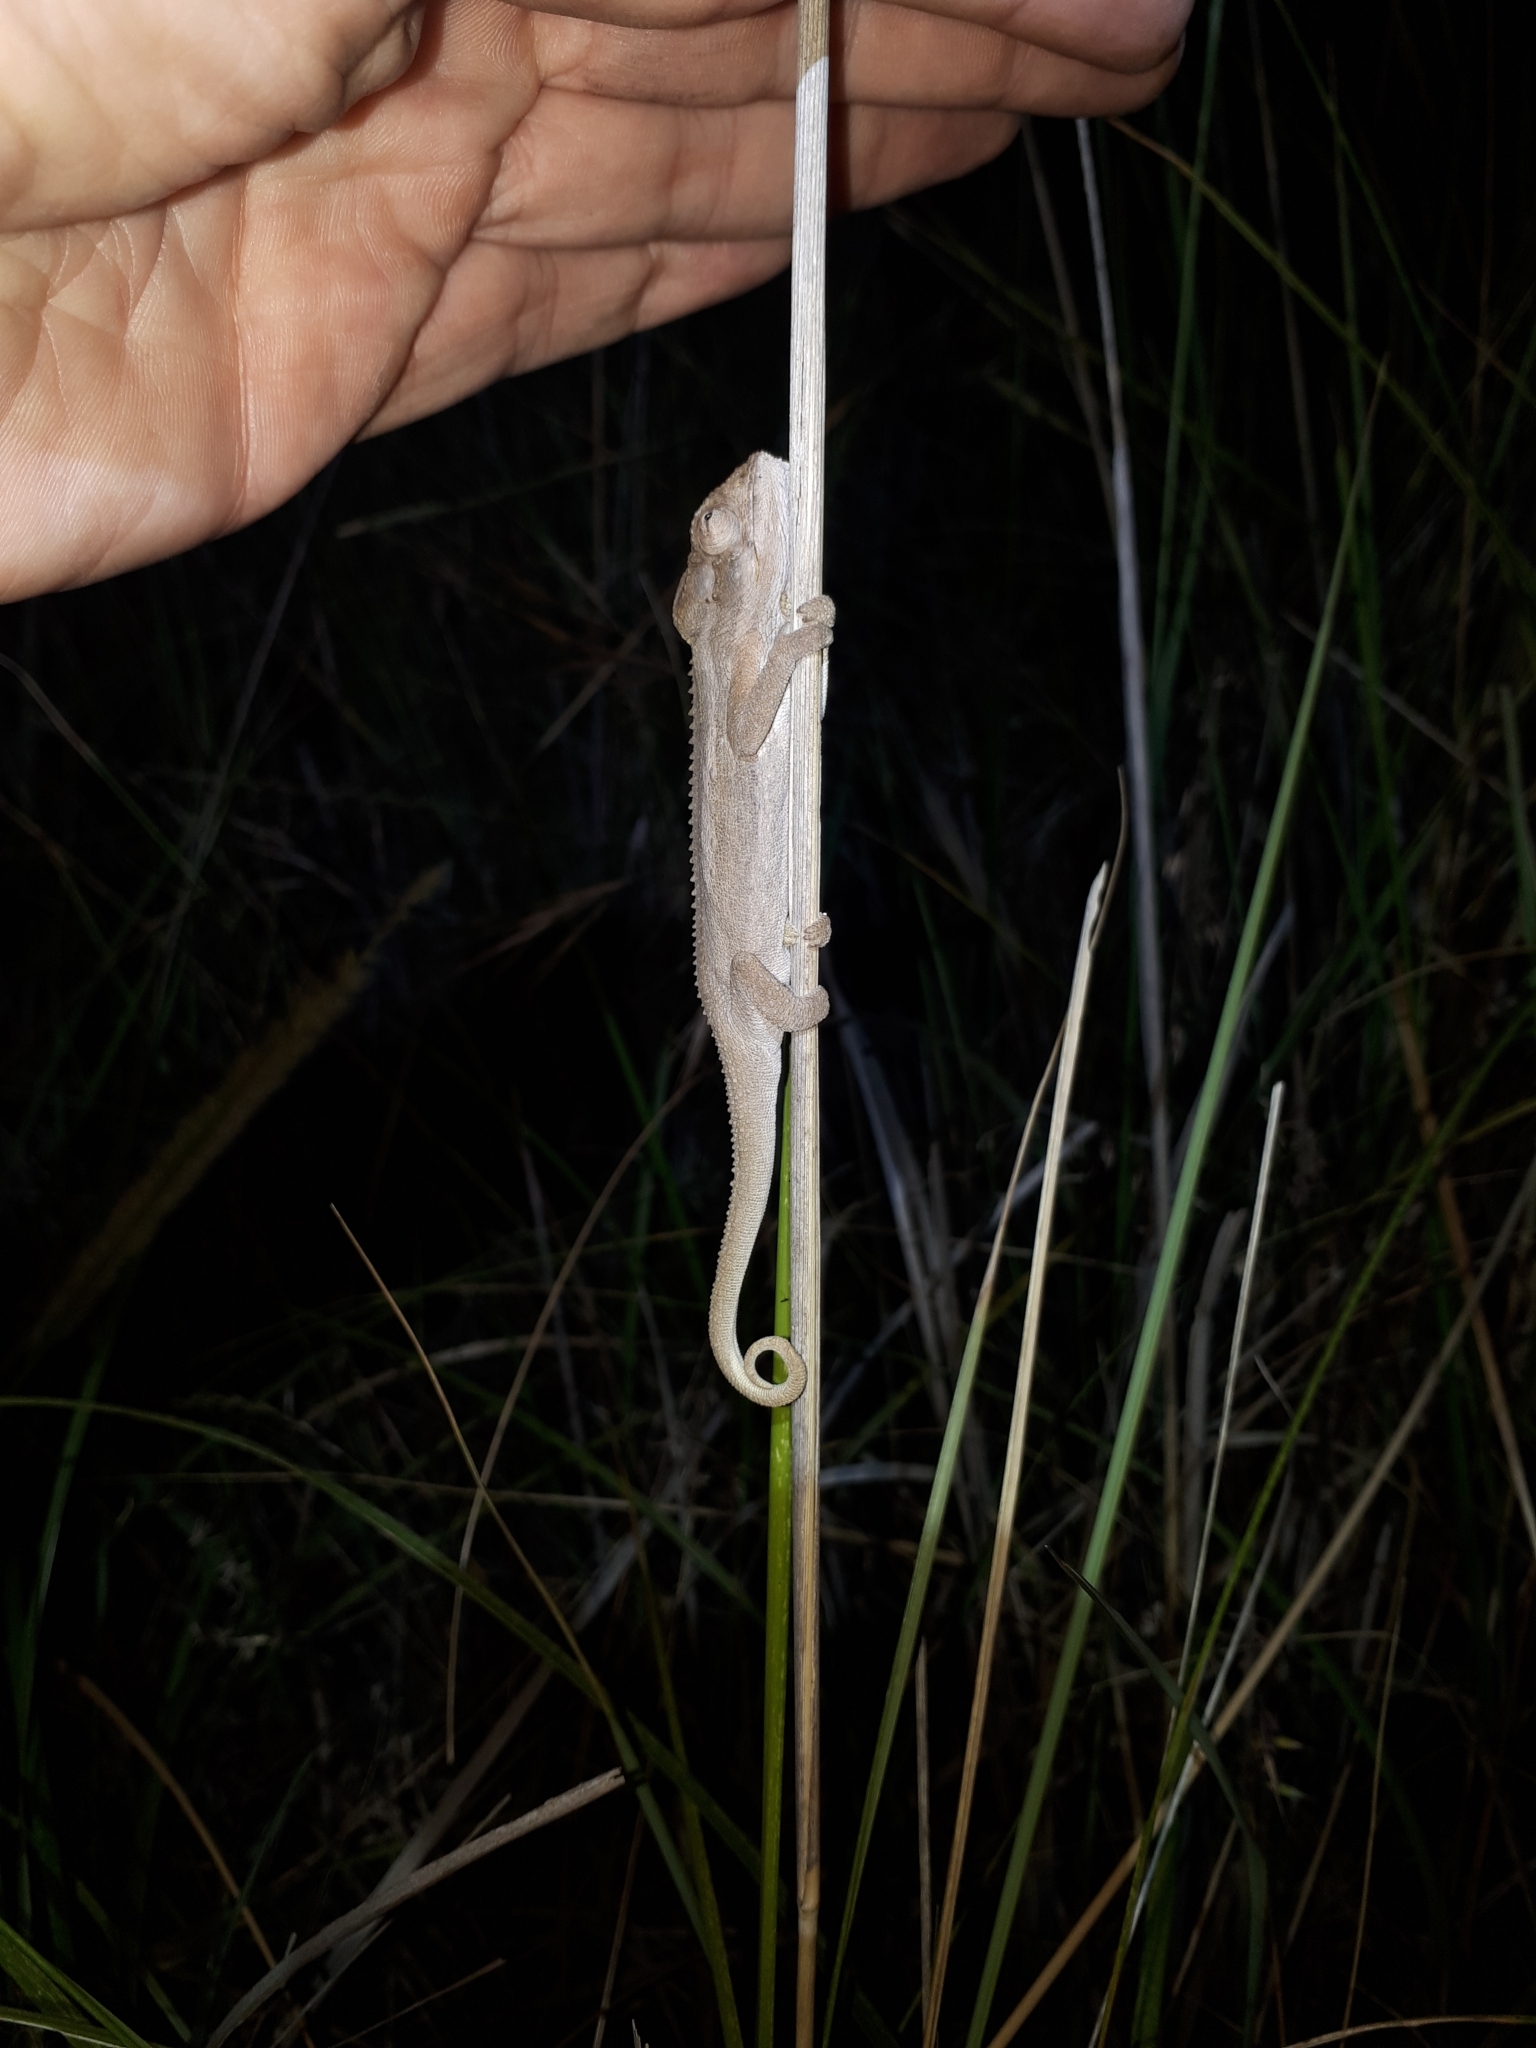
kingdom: Animalia
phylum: Chordata
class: Squamata
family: Chamaeleonidae
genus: Bradypodion
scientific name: Bradypodion pumilum
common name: Cape dwarf chameleon
